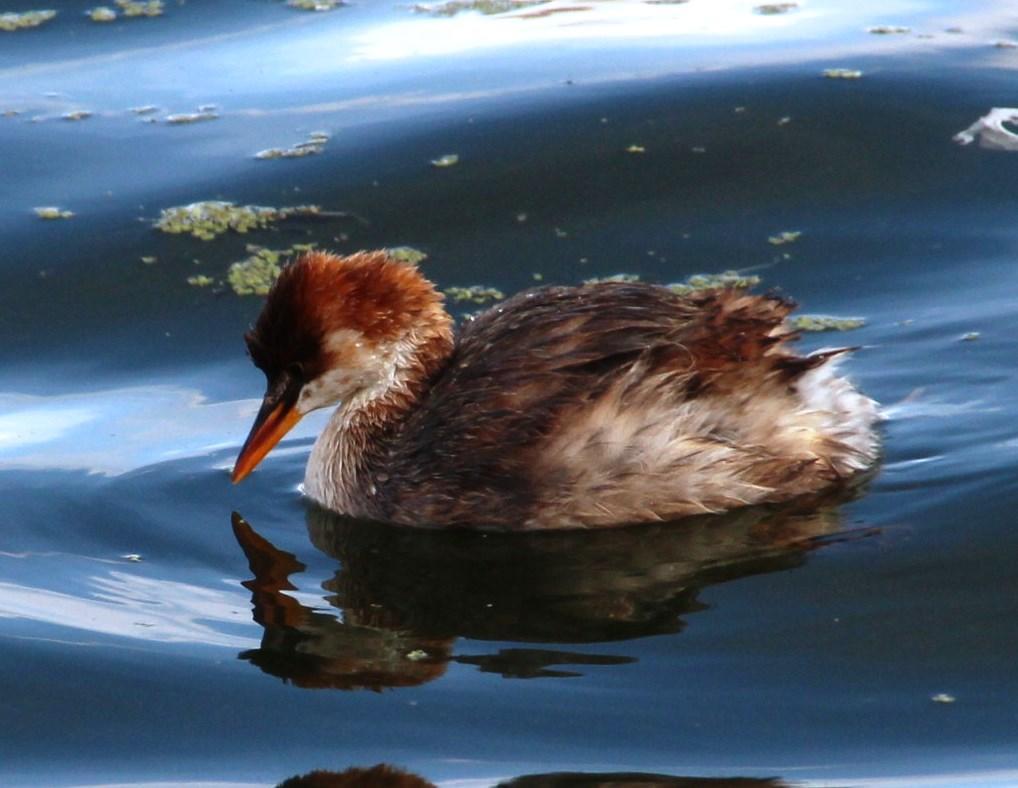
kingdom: Animalia
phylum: Chordata
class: Aves
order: Podicipediformes
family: Podicipedidae
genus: Rollandia
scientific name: Rollandia microptera
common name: Titicaca grebe
